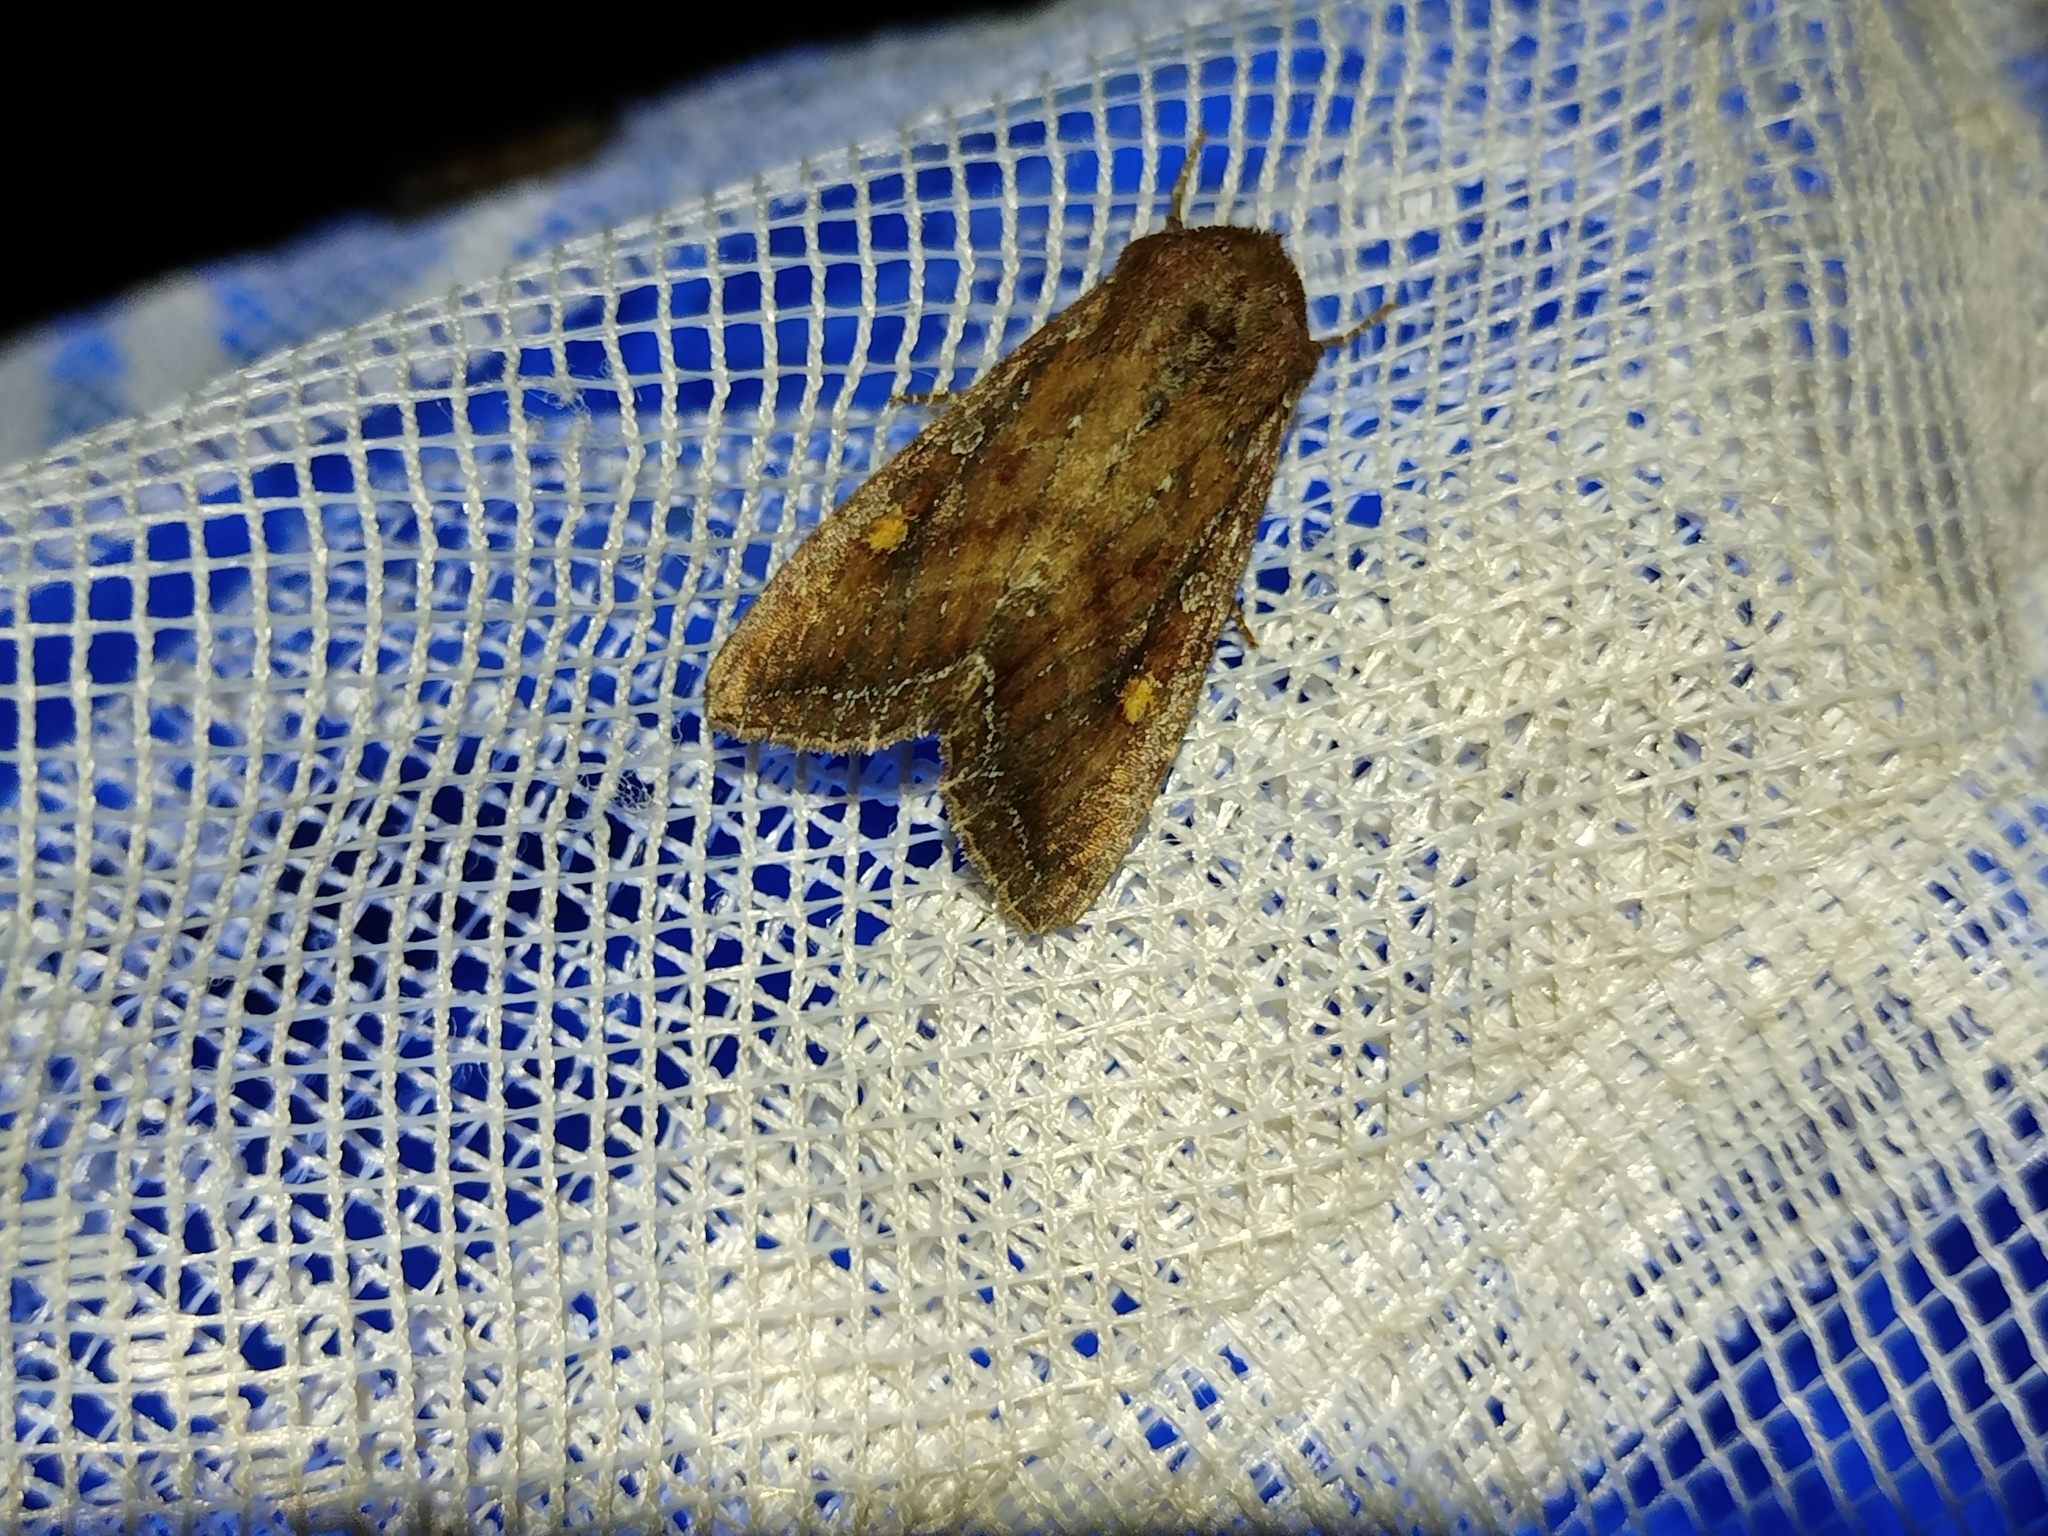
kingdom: Animalia
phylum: Arthropoda
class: Insecta
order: Lepidoptera
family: Noctuidae
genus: Lacanobia
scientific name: Lacanobia oleracea
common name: Bright-line brown-eye
